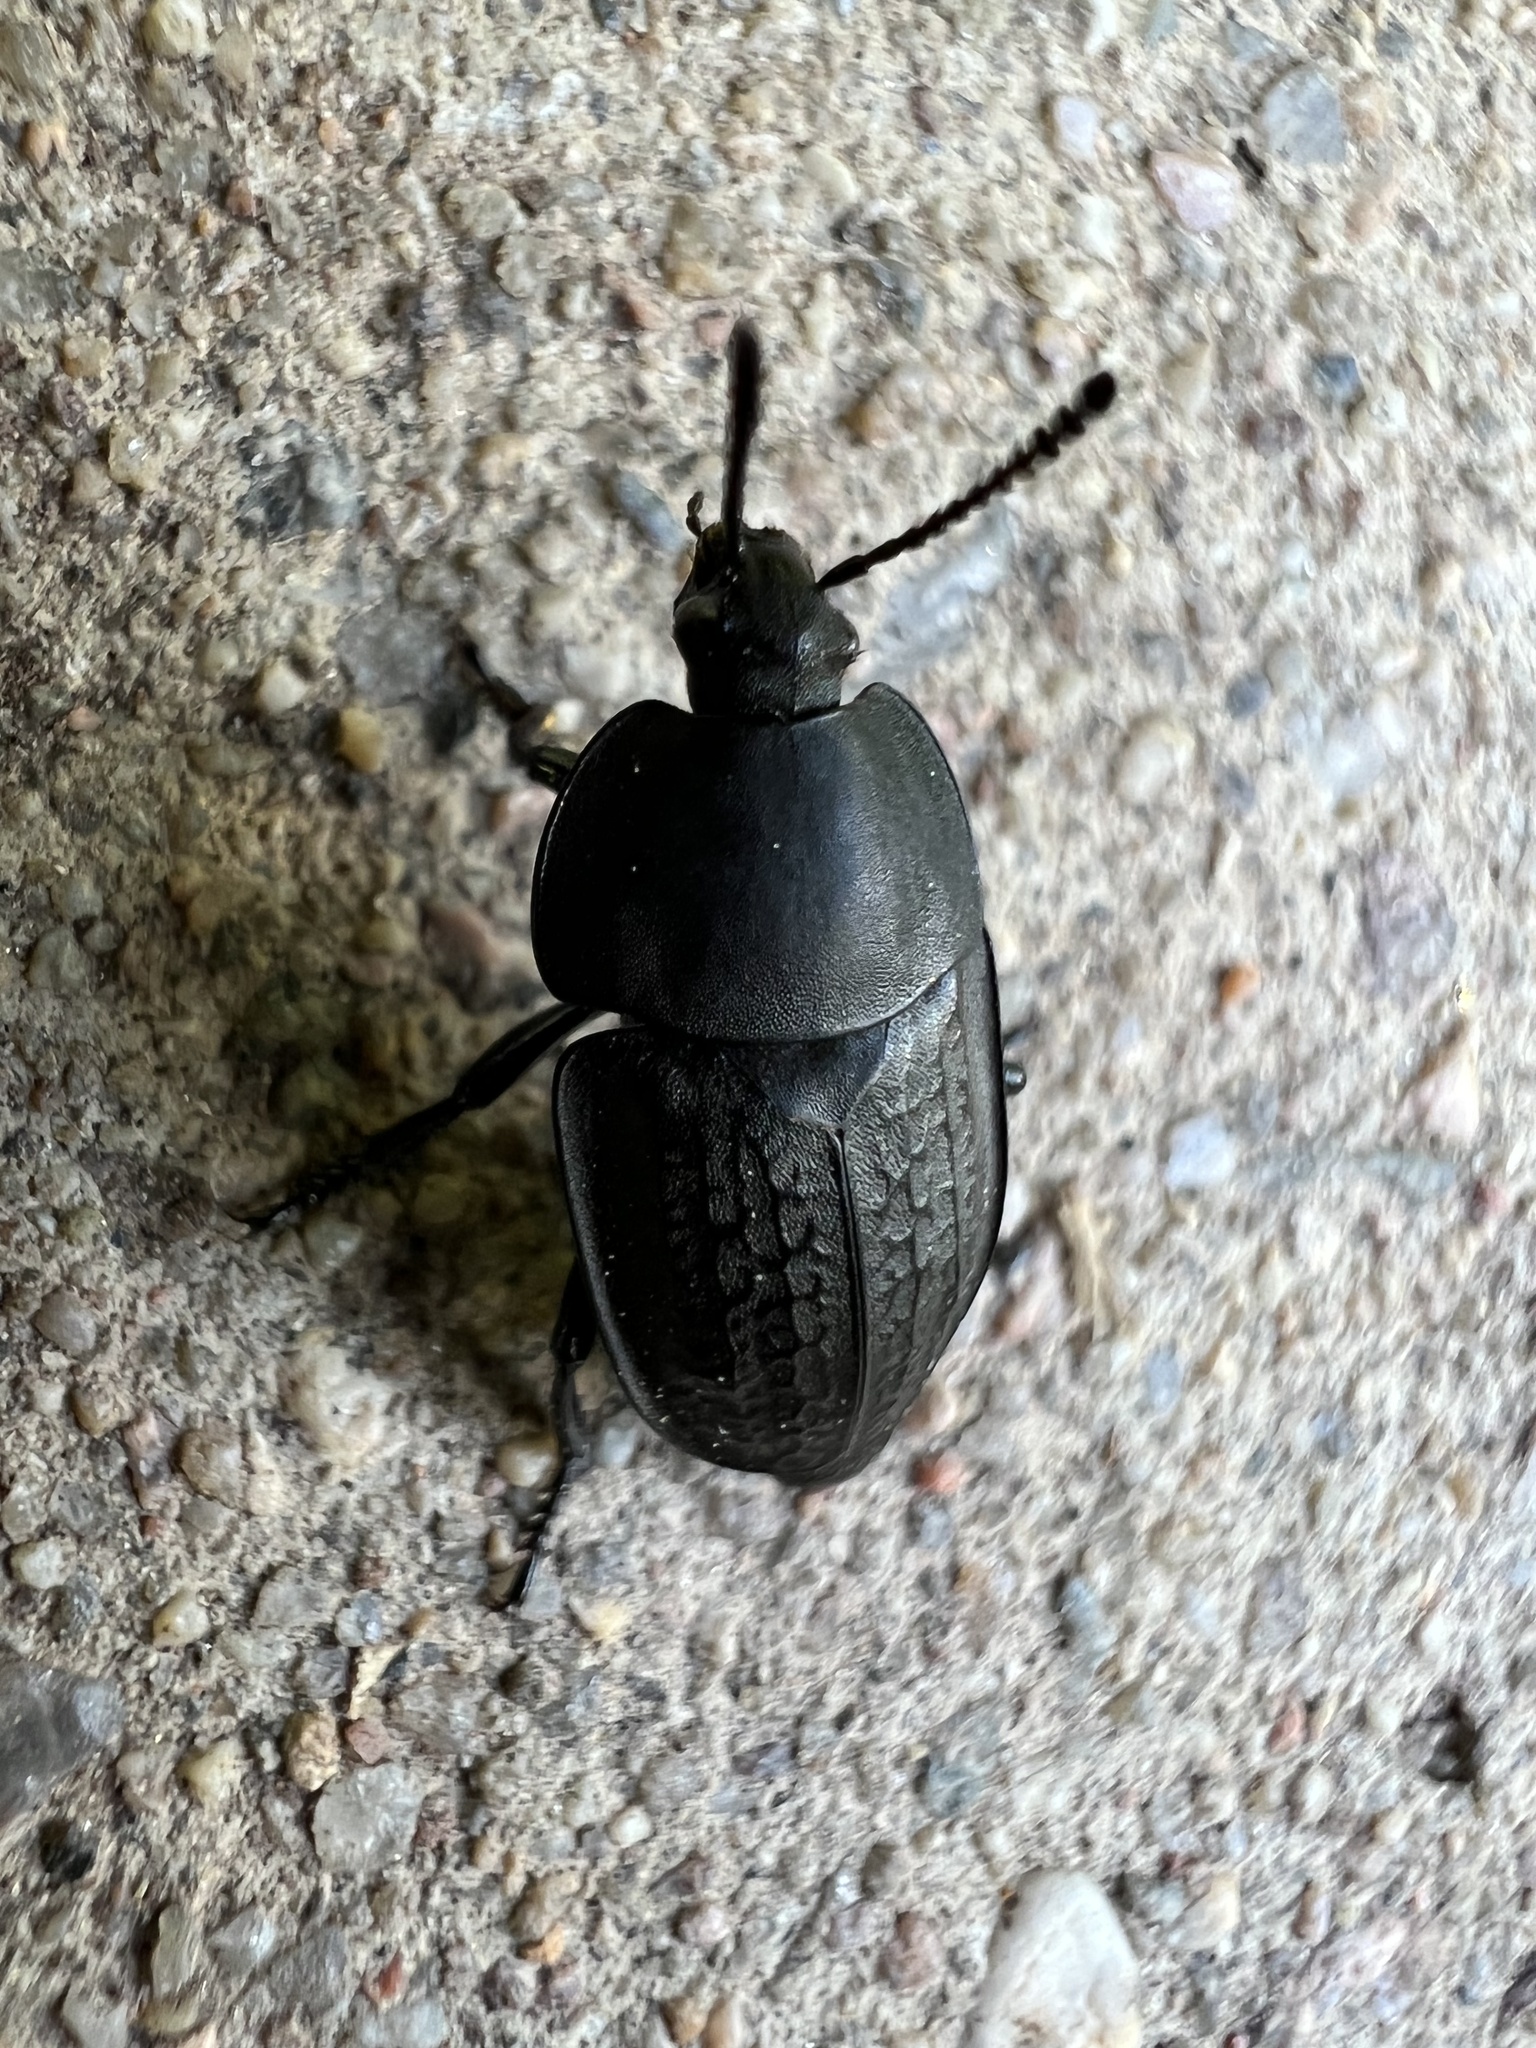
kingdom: Animalia
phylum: Arthropoda
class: Insecta
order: Coleoptera
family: Staphylinidae
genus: Heterosilpha
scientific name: Heterosilpha ramosa
